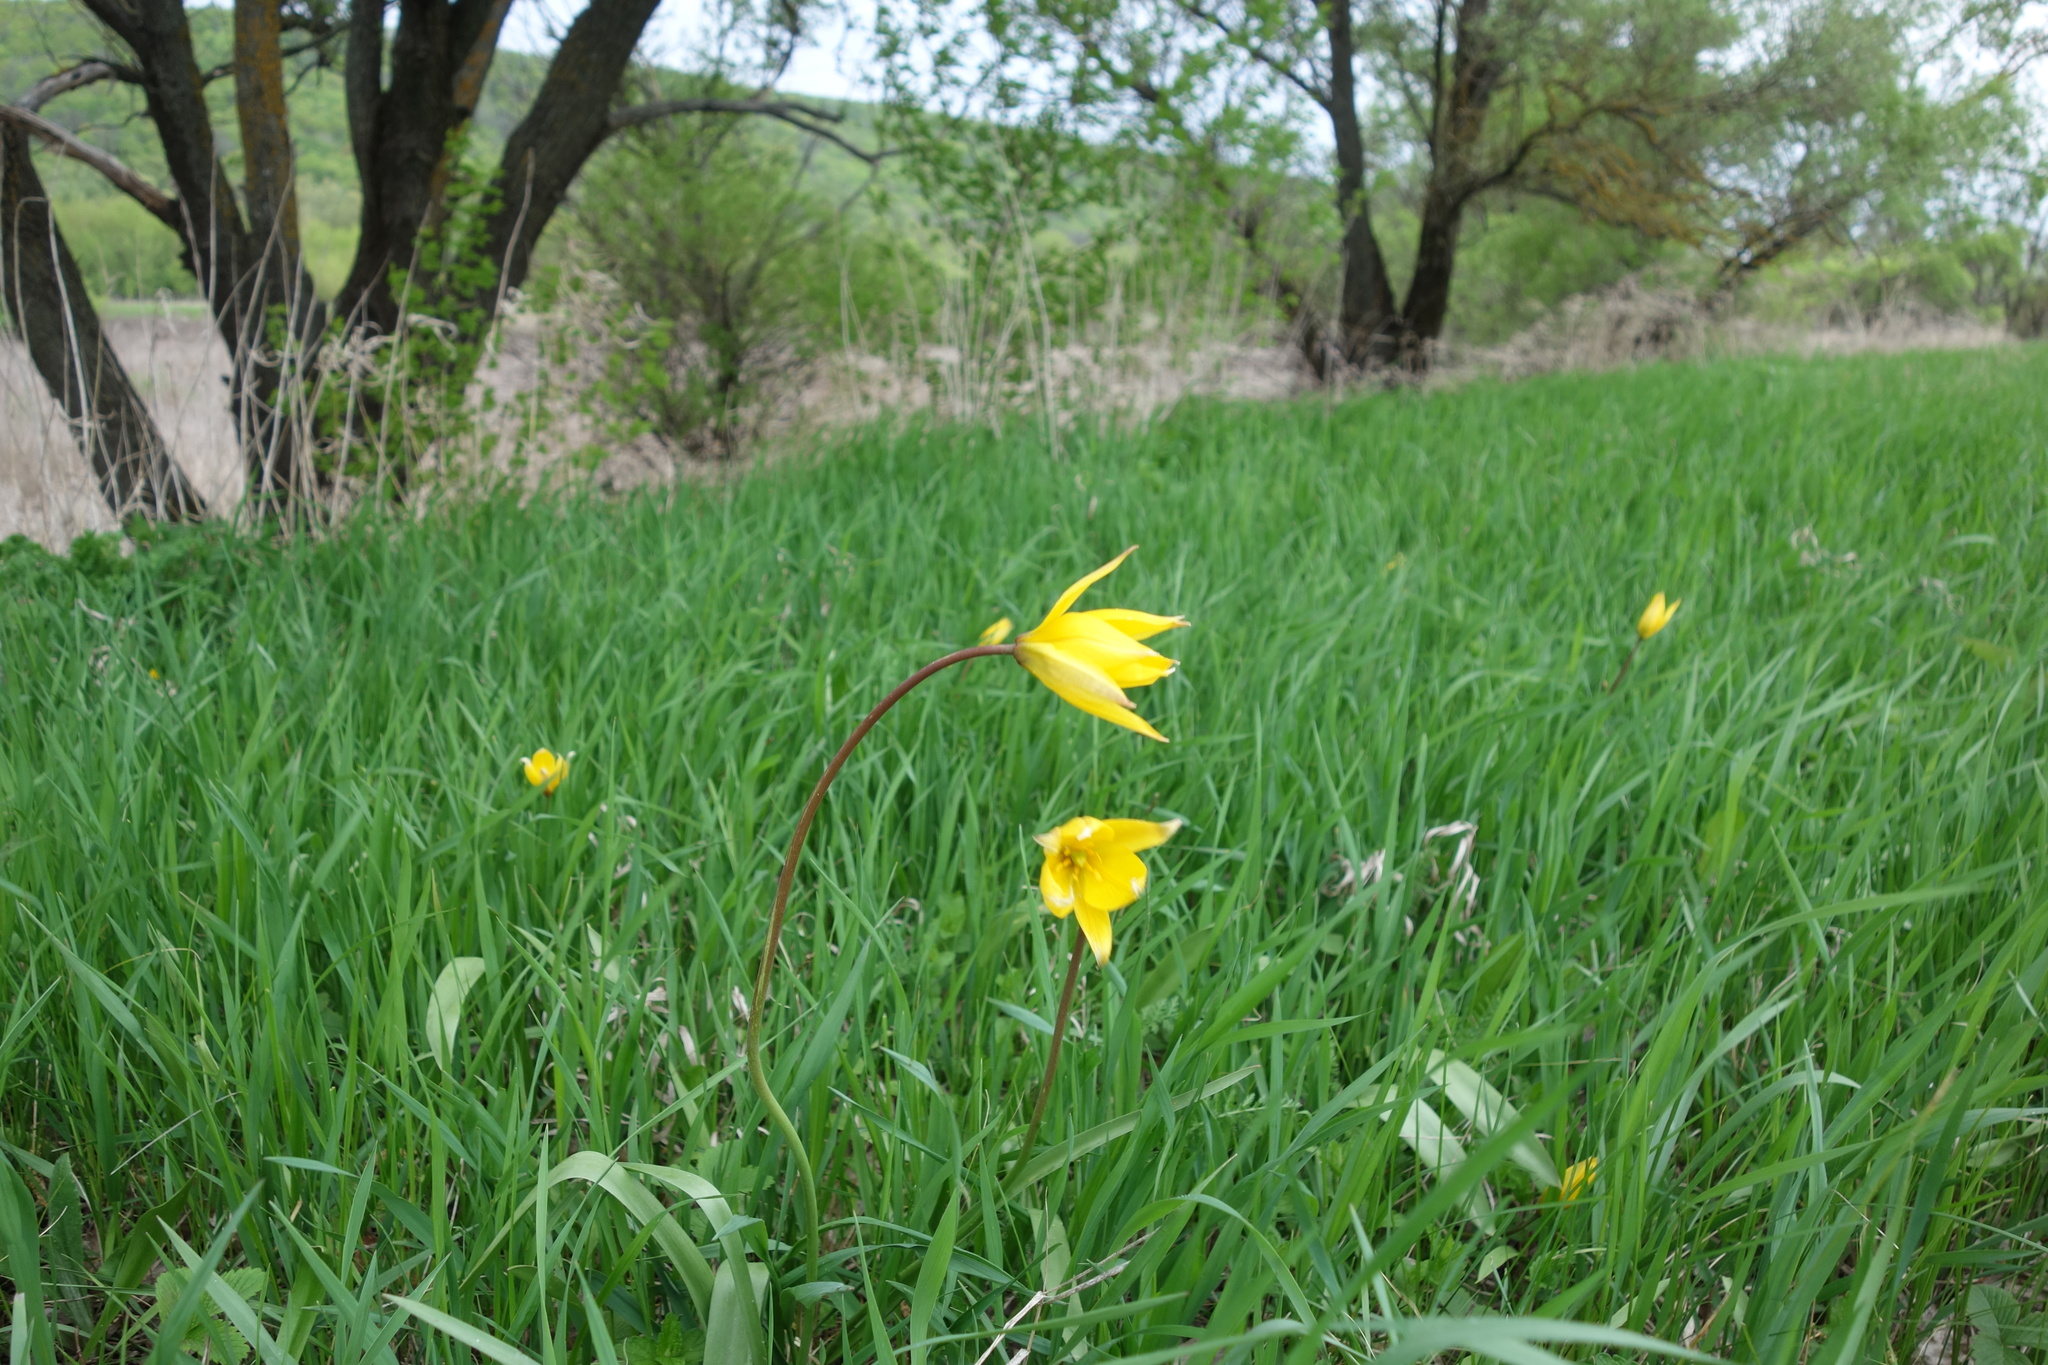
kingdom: Plantae
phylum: Tracheophyta
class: Liliopsida
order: Liliales
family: Liliaceae
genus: Tulipa
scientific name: Tulipa sylvestris
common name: Wild tulip
